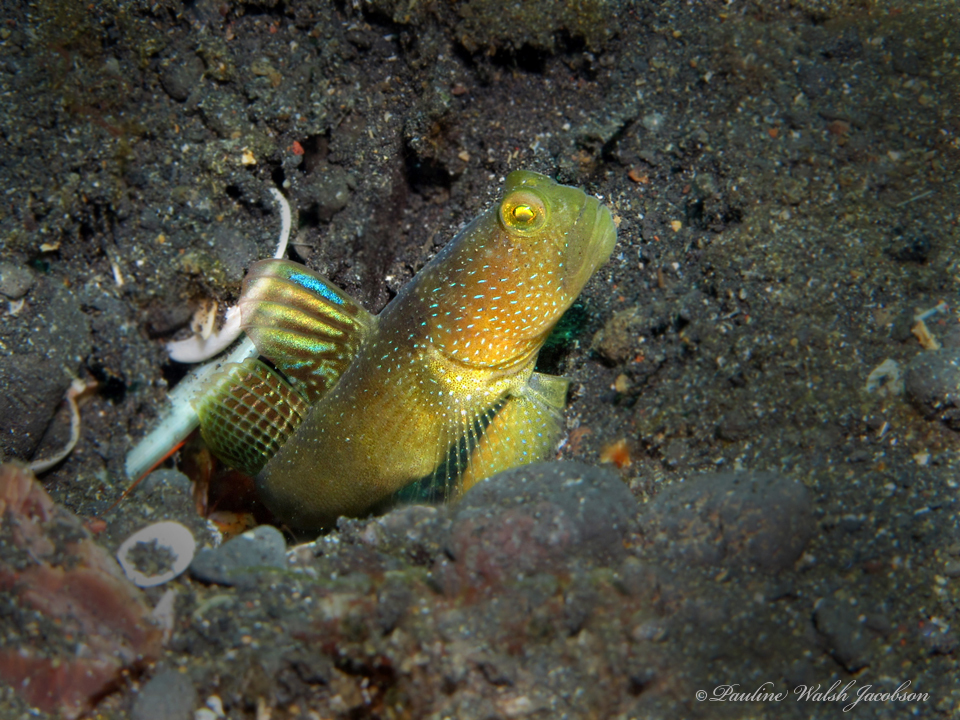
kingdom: Animalia
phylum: Chordata
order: Perciformes
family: Gobiidae
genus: Cryptocentrus
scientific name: Cryptocentrus fasciatus
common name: Barred prawn-goby
